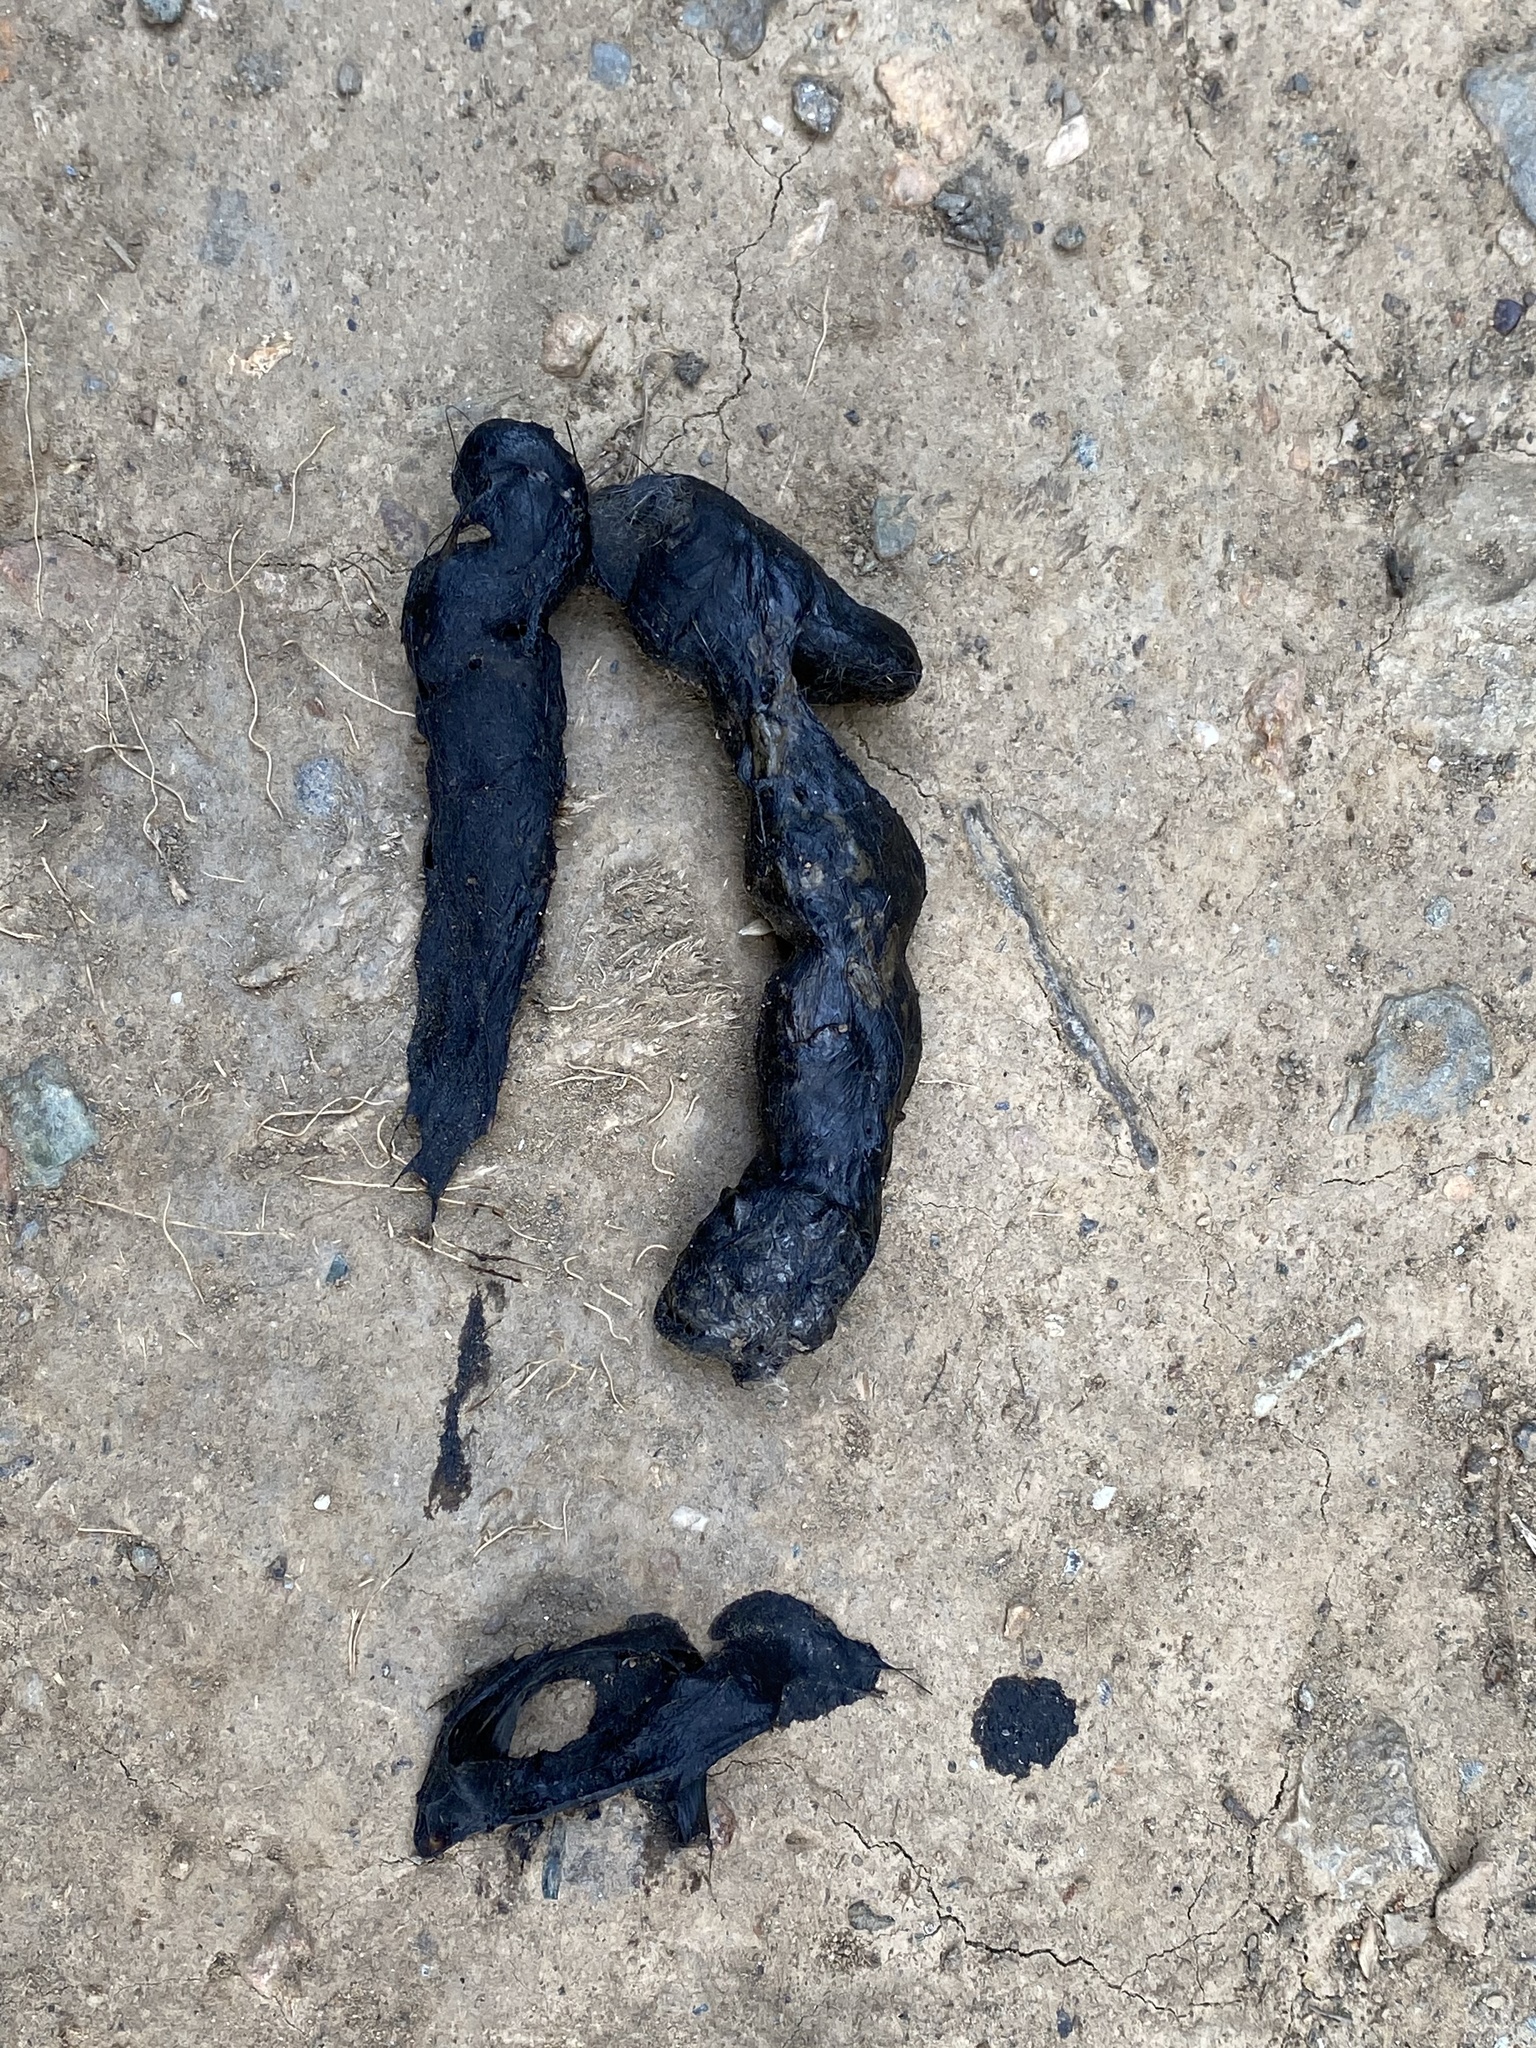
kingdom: Animalia
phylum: Chordata
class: Mammalia
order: Carnivora
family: Canidae
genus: Urocyon
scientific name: Urocyon cinereoargenteus
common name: Gray fox
